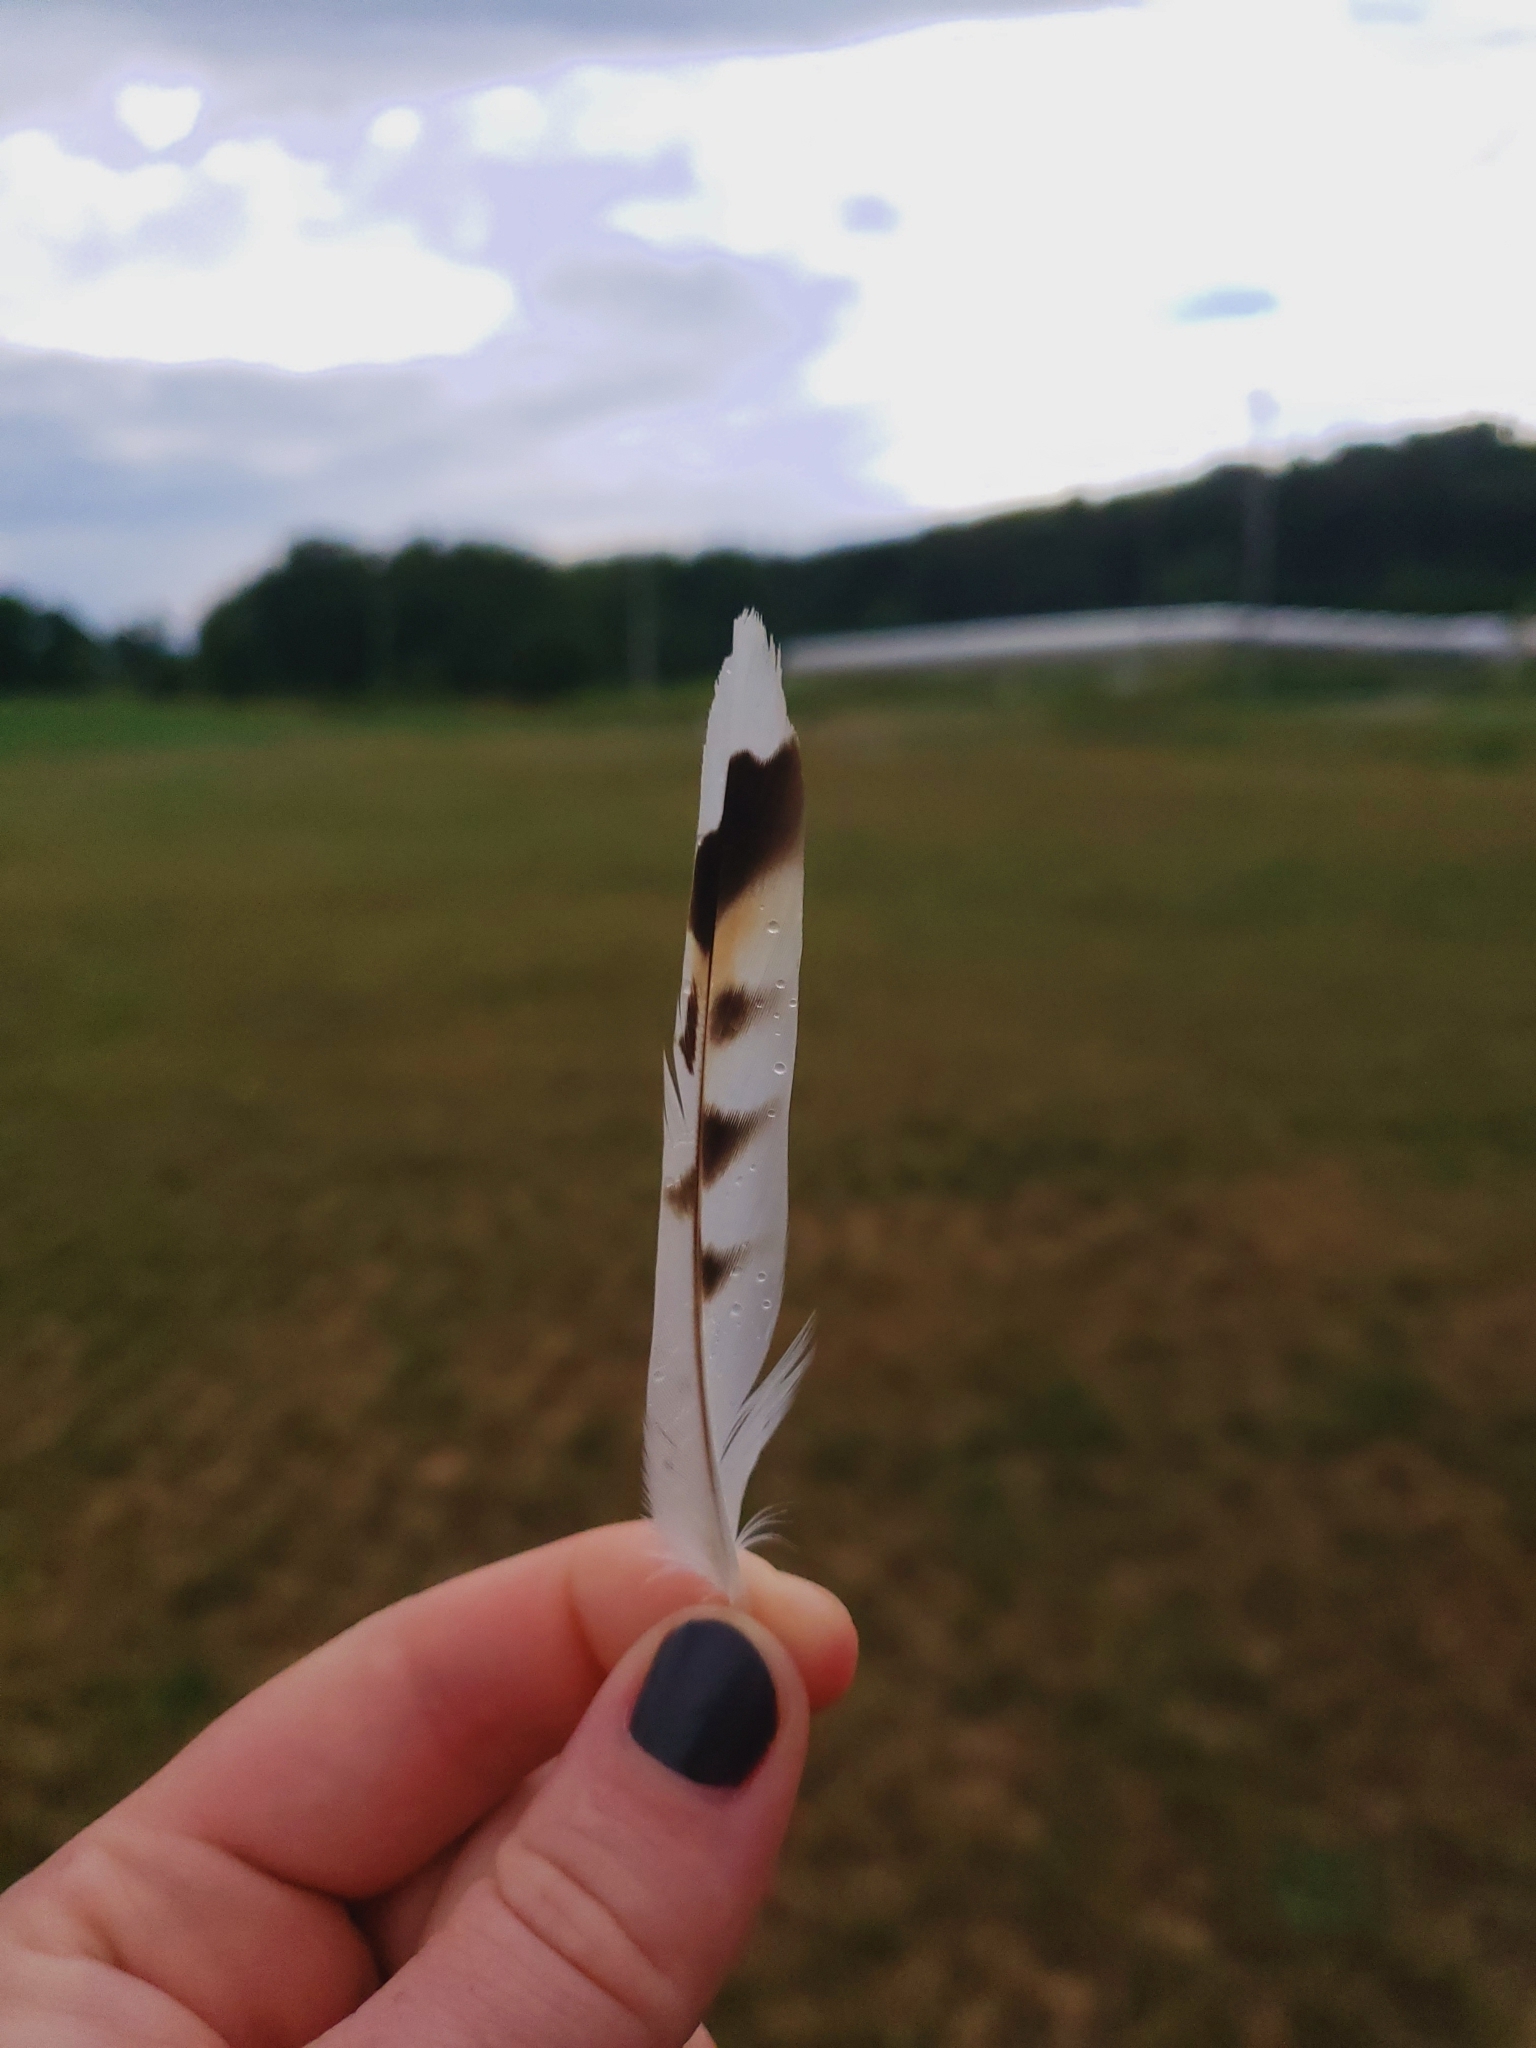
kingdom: Animalia
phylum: Chordata
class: Aves
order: Charadriiformes
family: Charadriidae
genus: Charadrius
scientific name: Charadrius vociferus
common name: Killdeer
